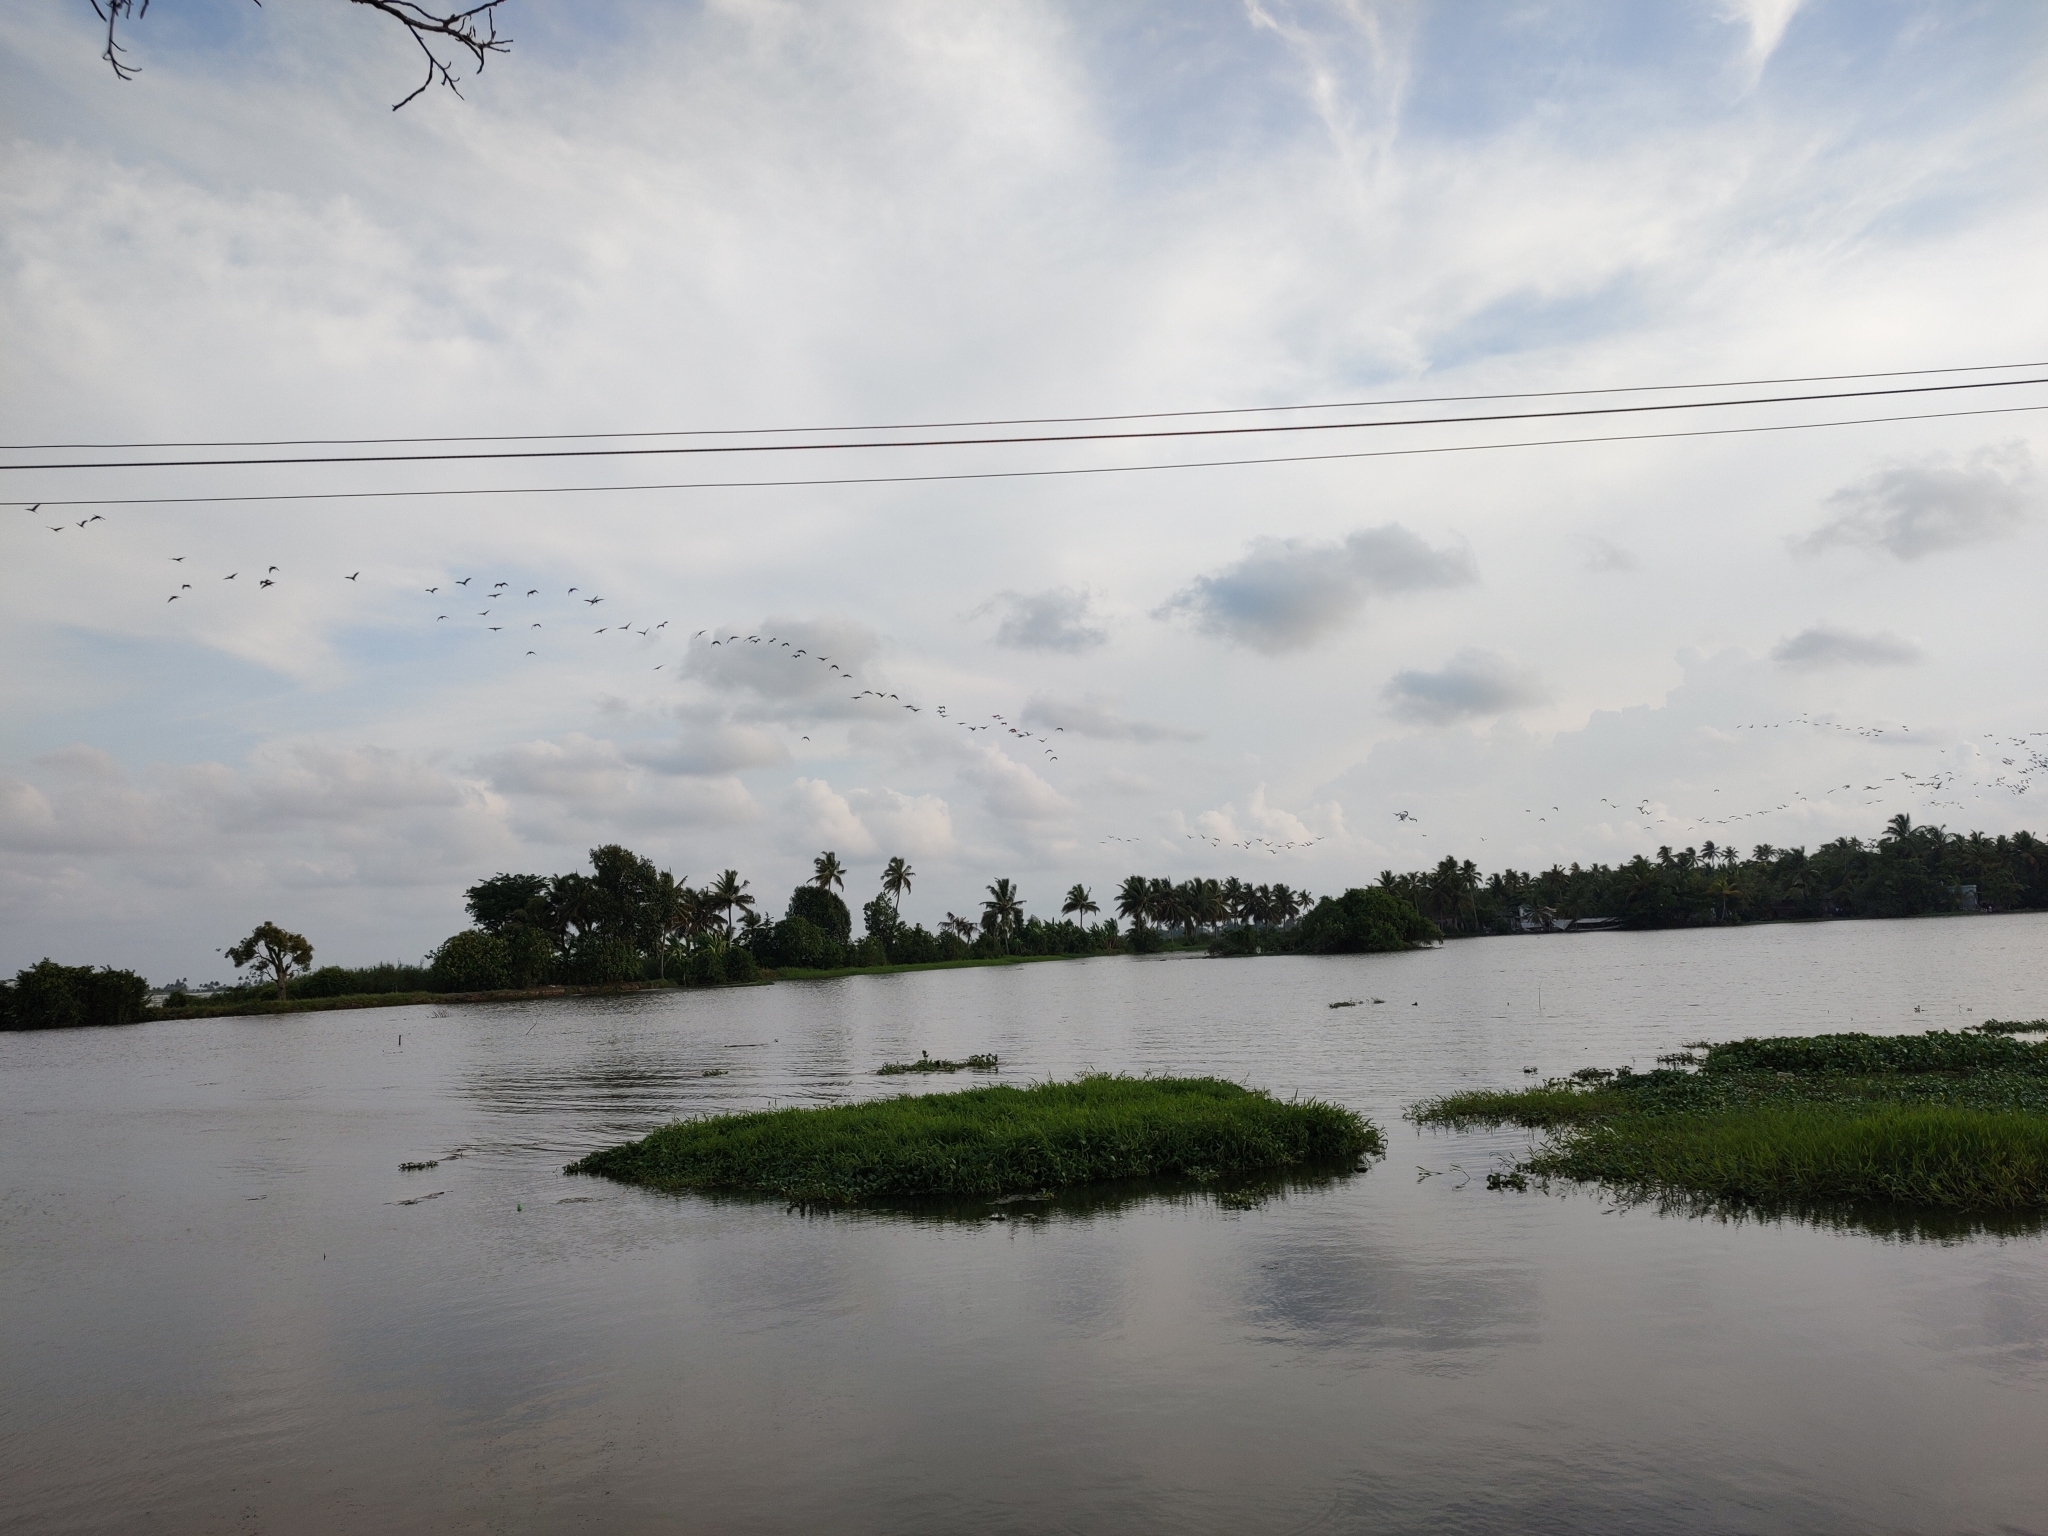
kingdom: Animalia
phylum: Chordata
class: Aves
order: Pelecaniformes
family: Threskiornithidae
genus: Plegadis
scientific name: Plegadis falcinellus
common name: Glossy ibis
